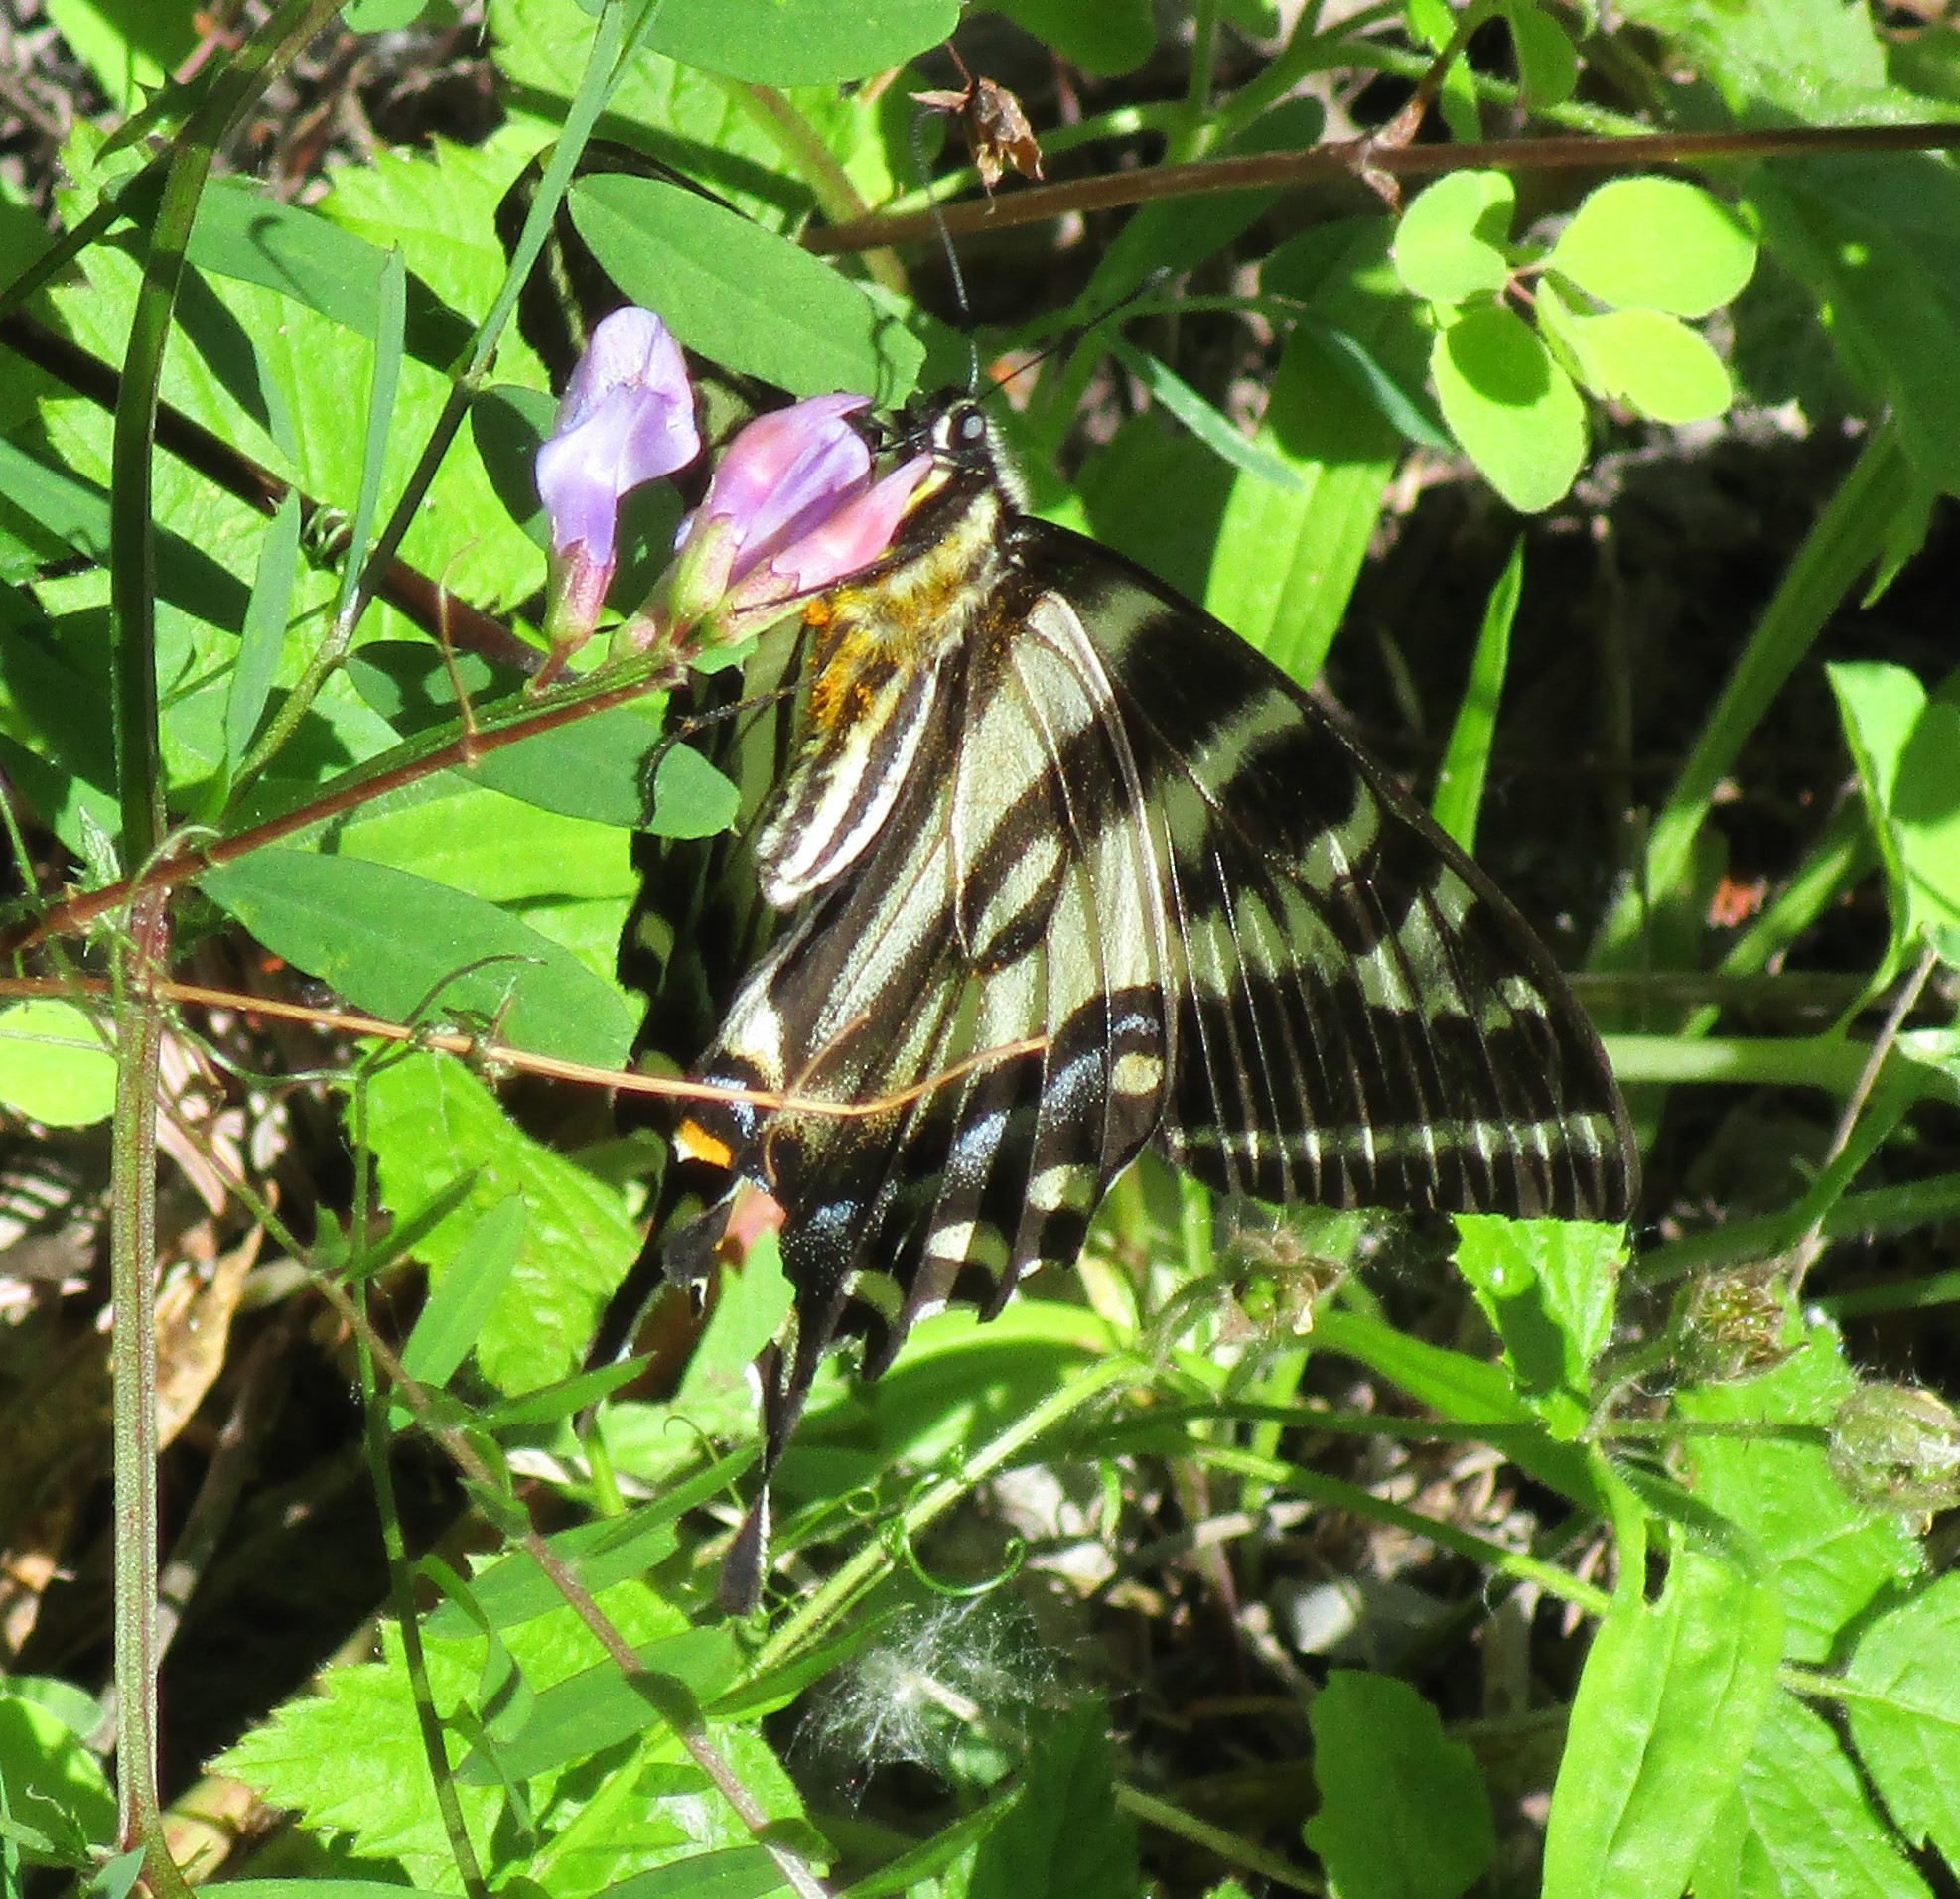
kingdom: Animalia
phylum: Arthropoda
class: Insecta
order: Lepidoptera
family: Papilionidae
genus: Papilio
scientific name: Papilio eurymedon
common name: Pale tiger swallowtail
